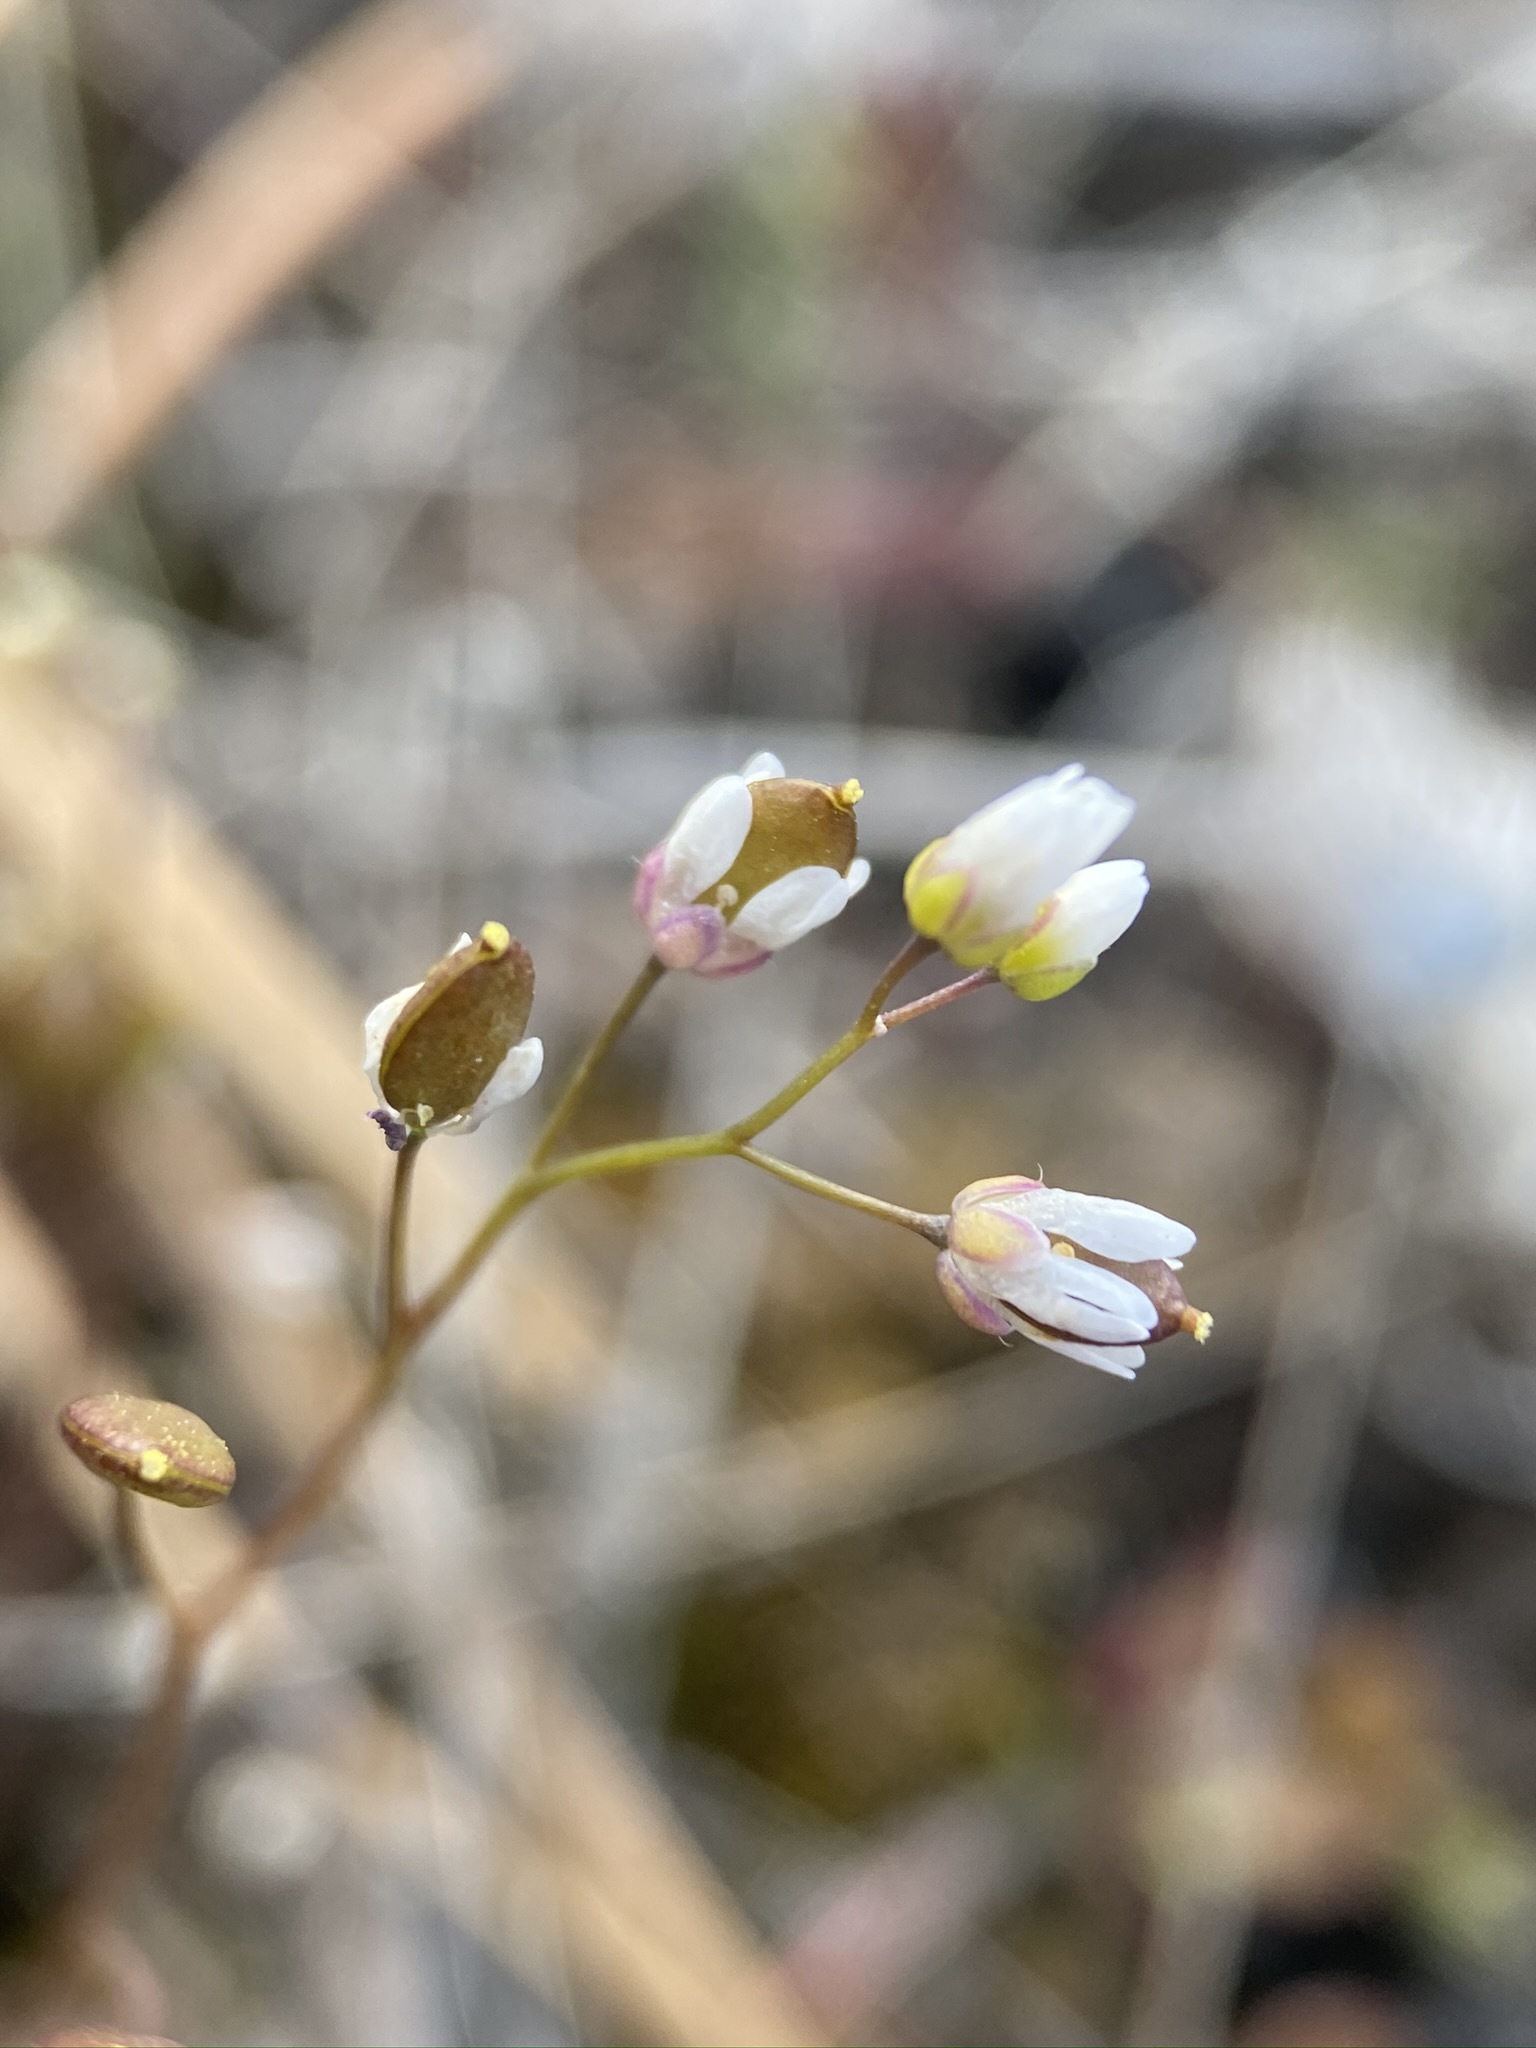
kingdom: Plantae
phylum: Tracheophyta
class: Magnoliopsida
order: Brassicales
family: Brassicaceae
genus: Draba
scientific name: Draba verna
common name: Spring draba
